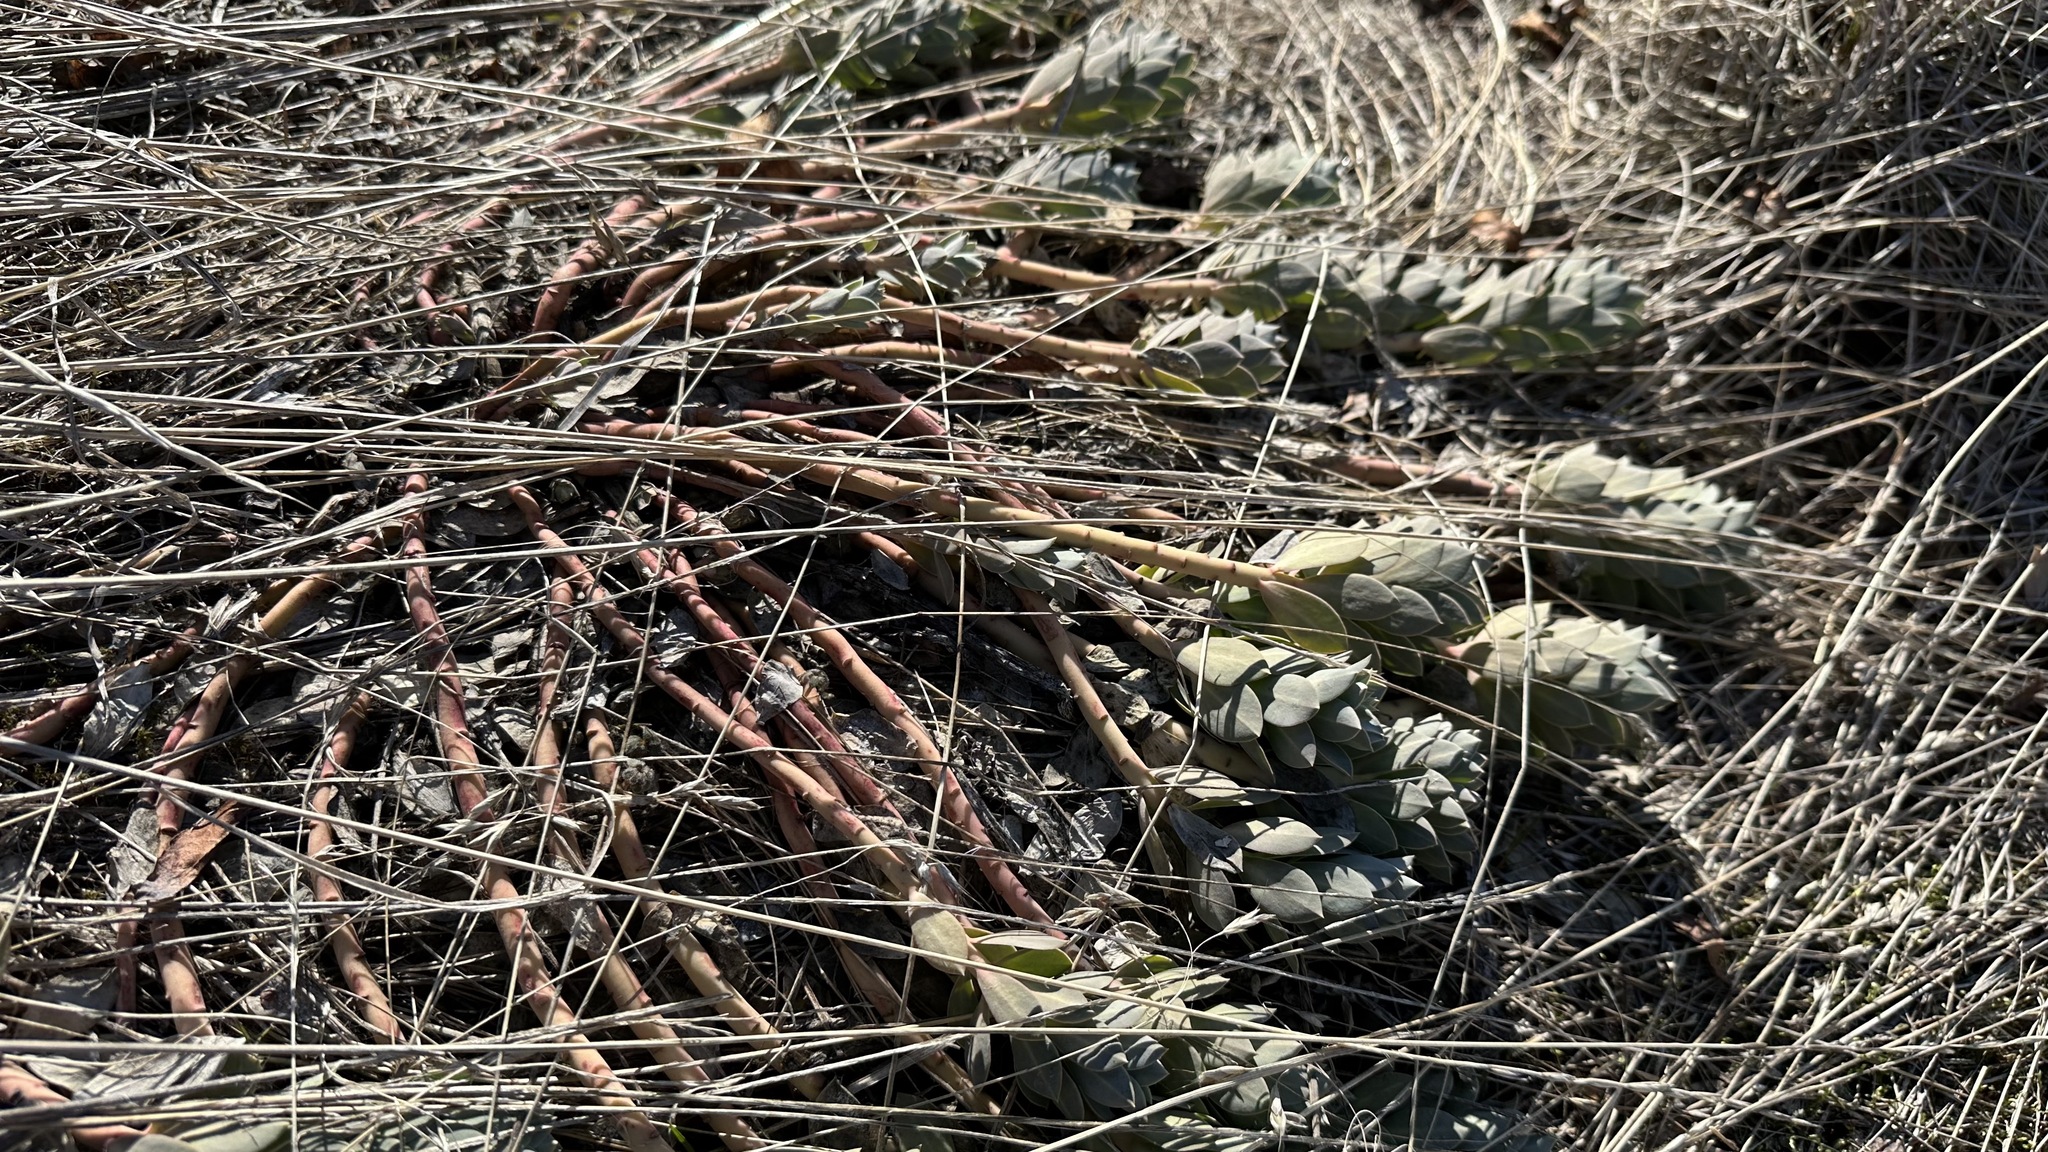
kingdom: Plantae
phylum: Tracheophyta
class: Magnoliopsida
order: Malpighiales
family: Euphorbiaceae
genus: Euphorbia
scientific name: Euphorbia myrsinites
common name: Myrtle spurge
